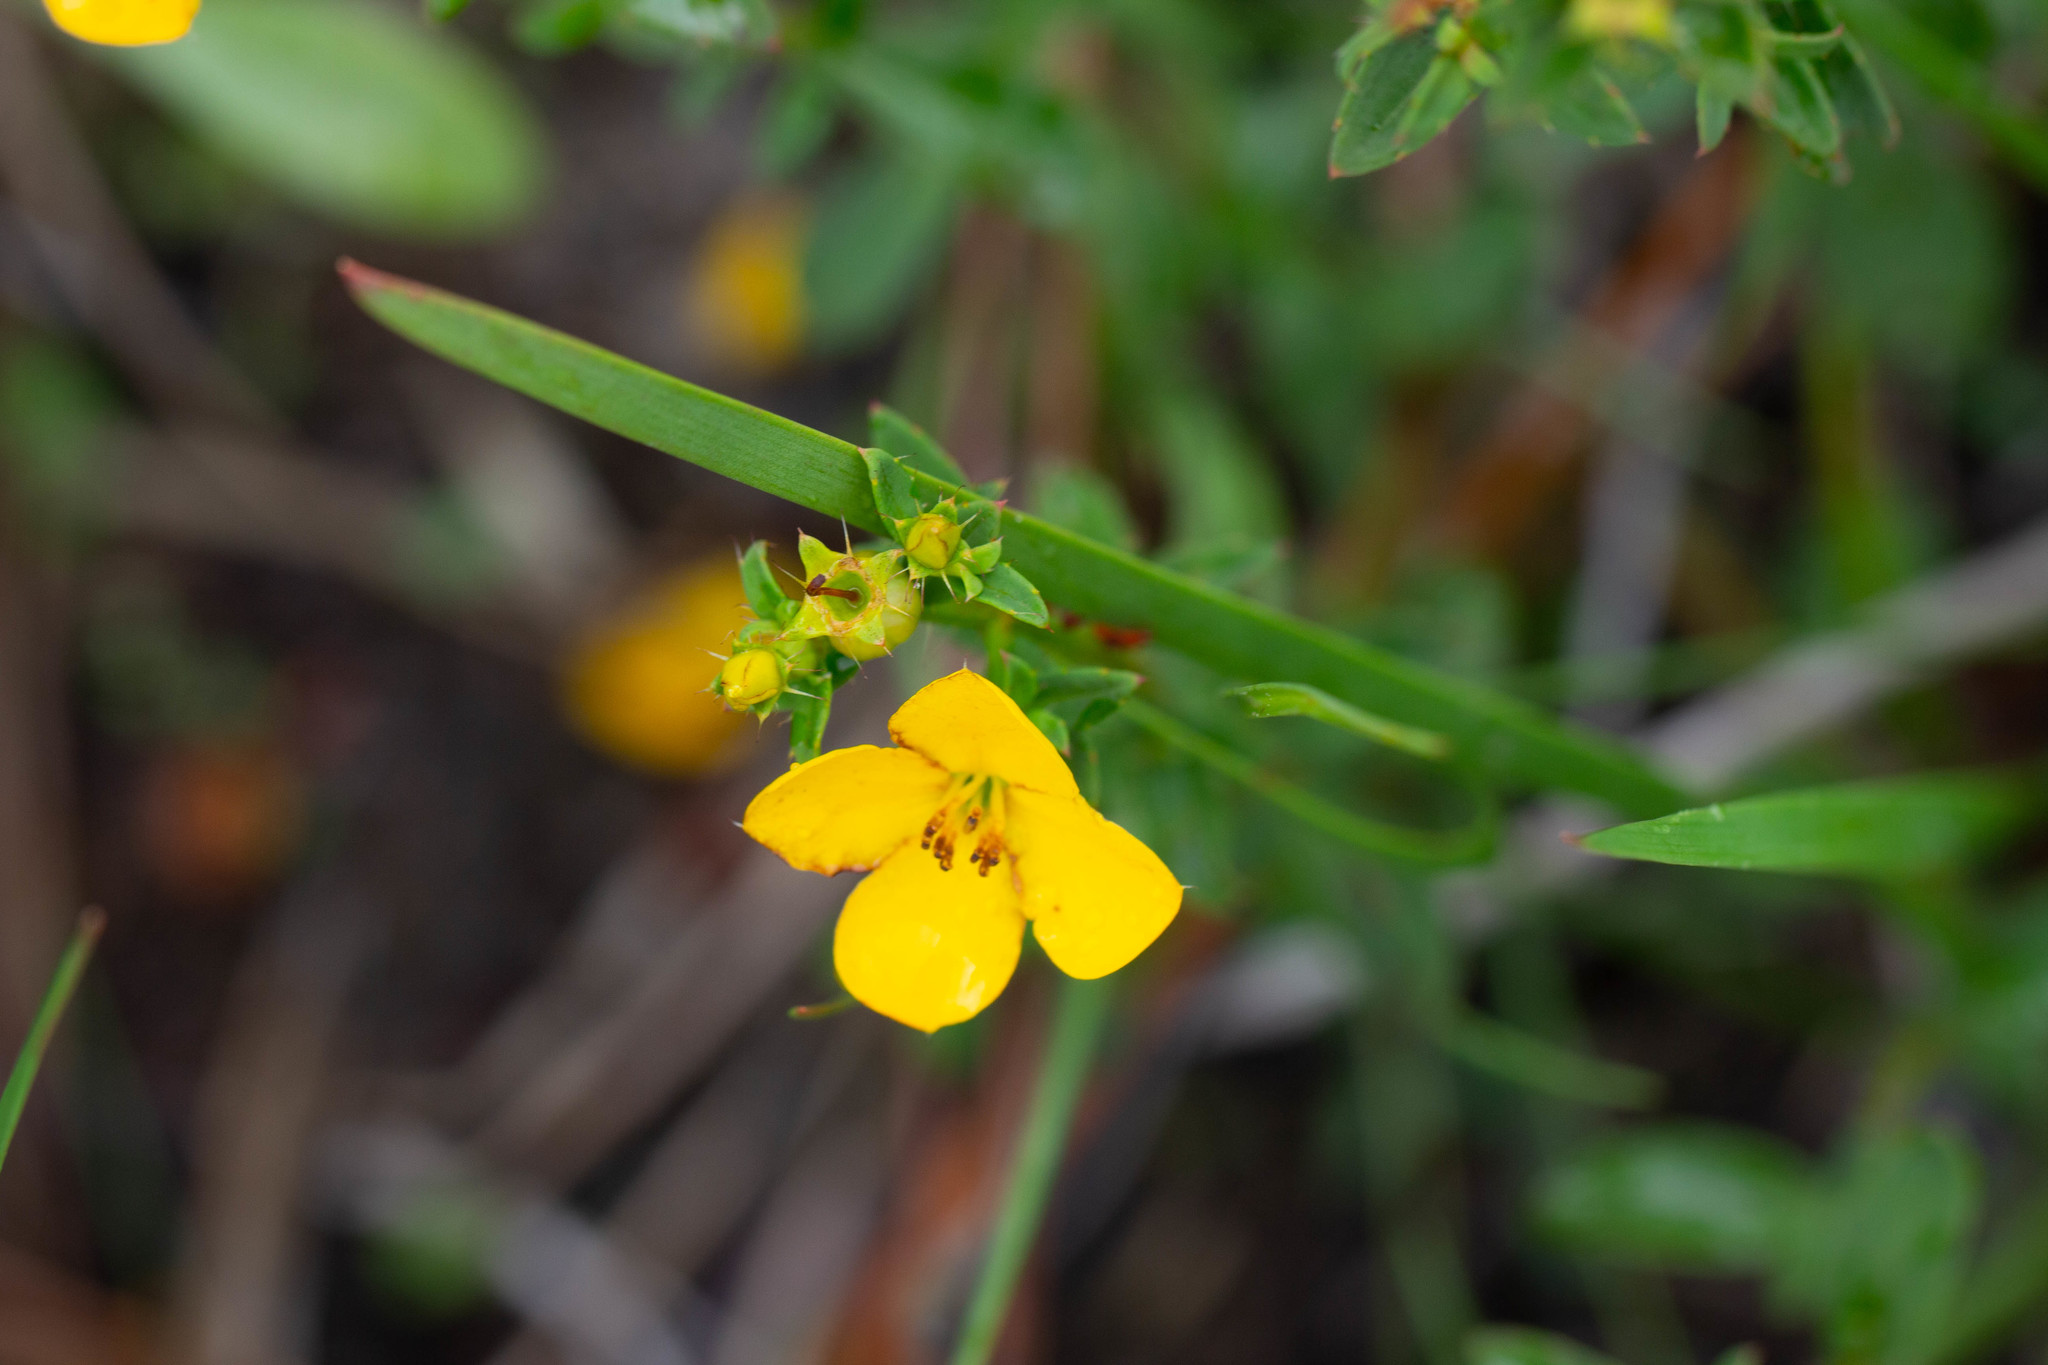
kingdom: Plantae
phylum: Tracheophyta
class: Magnoliopsida
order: Myrtales
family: Melastomataceae
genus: Rhexia
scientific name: Rhexia lutea
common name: Golden meadow-beauty
